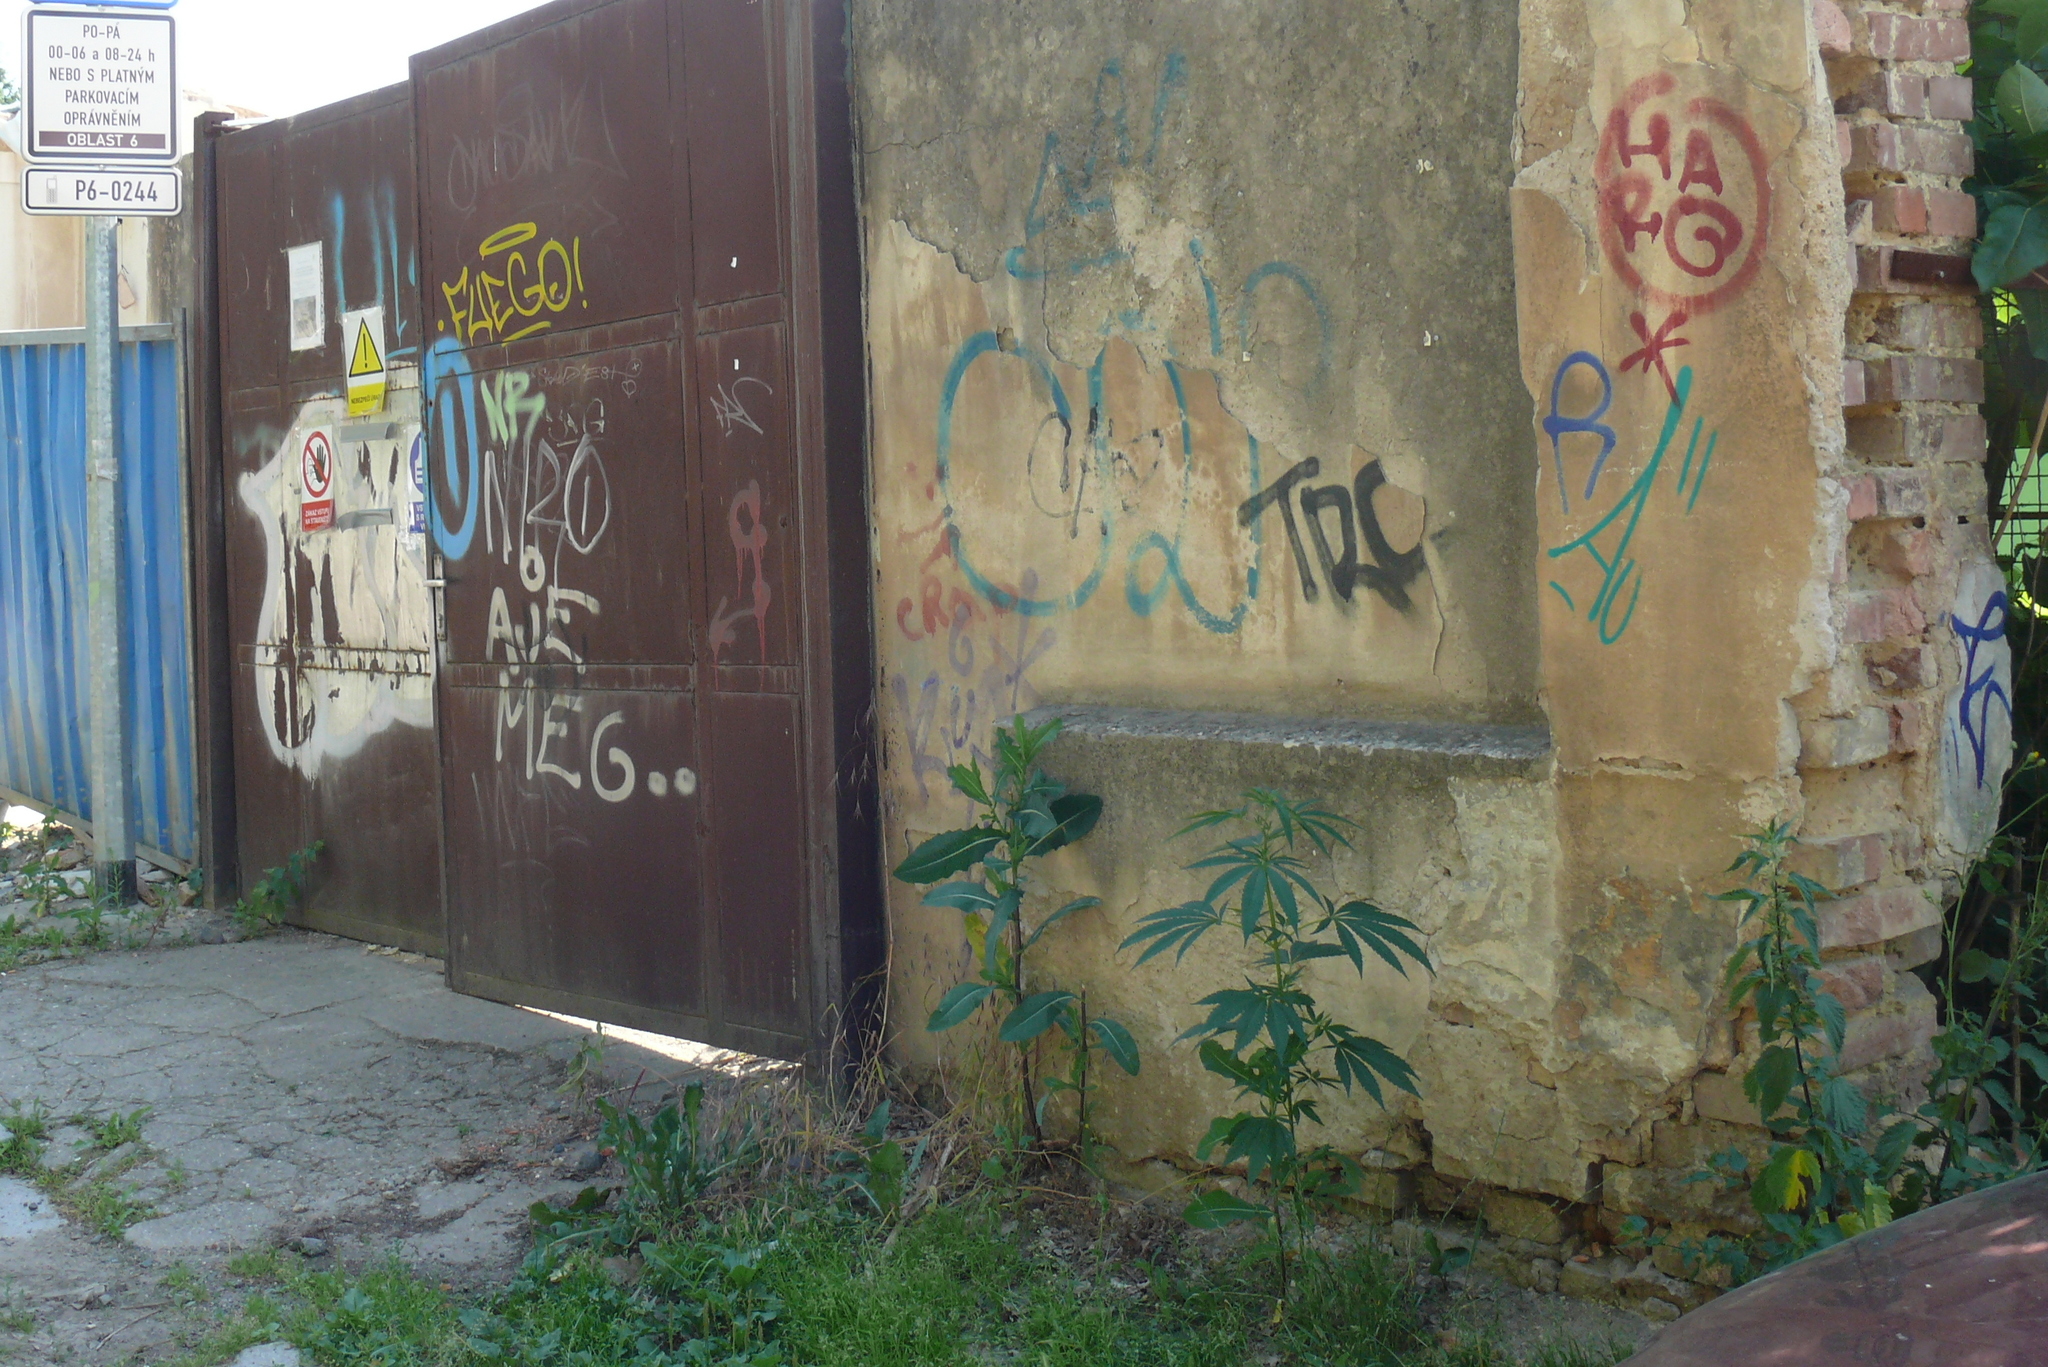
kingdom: Plantae
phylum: Tracheophyta
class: Magnoliopsida
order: Rosales
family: Cannabaceae
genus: Cannabis
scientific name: Cannabis sativa
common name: Hemp
